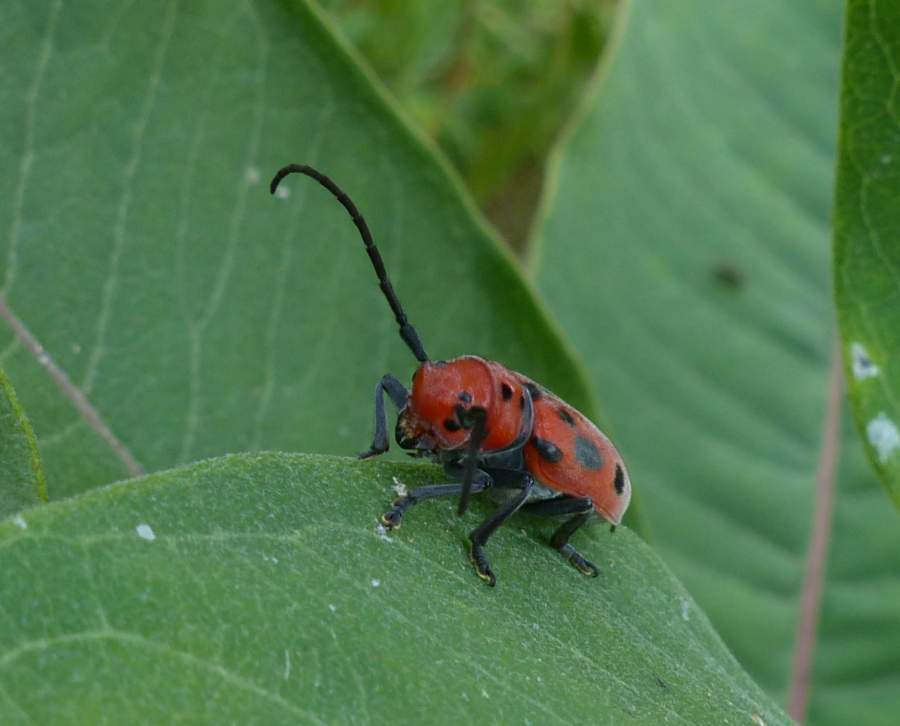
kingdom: Animalia
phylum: Arthropoda
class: Insecta
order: Coleoptera
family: Cerambycidae
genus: Tetraopes
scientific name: Tetraopes tetrophthalmus
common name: Red milkweed beetle
